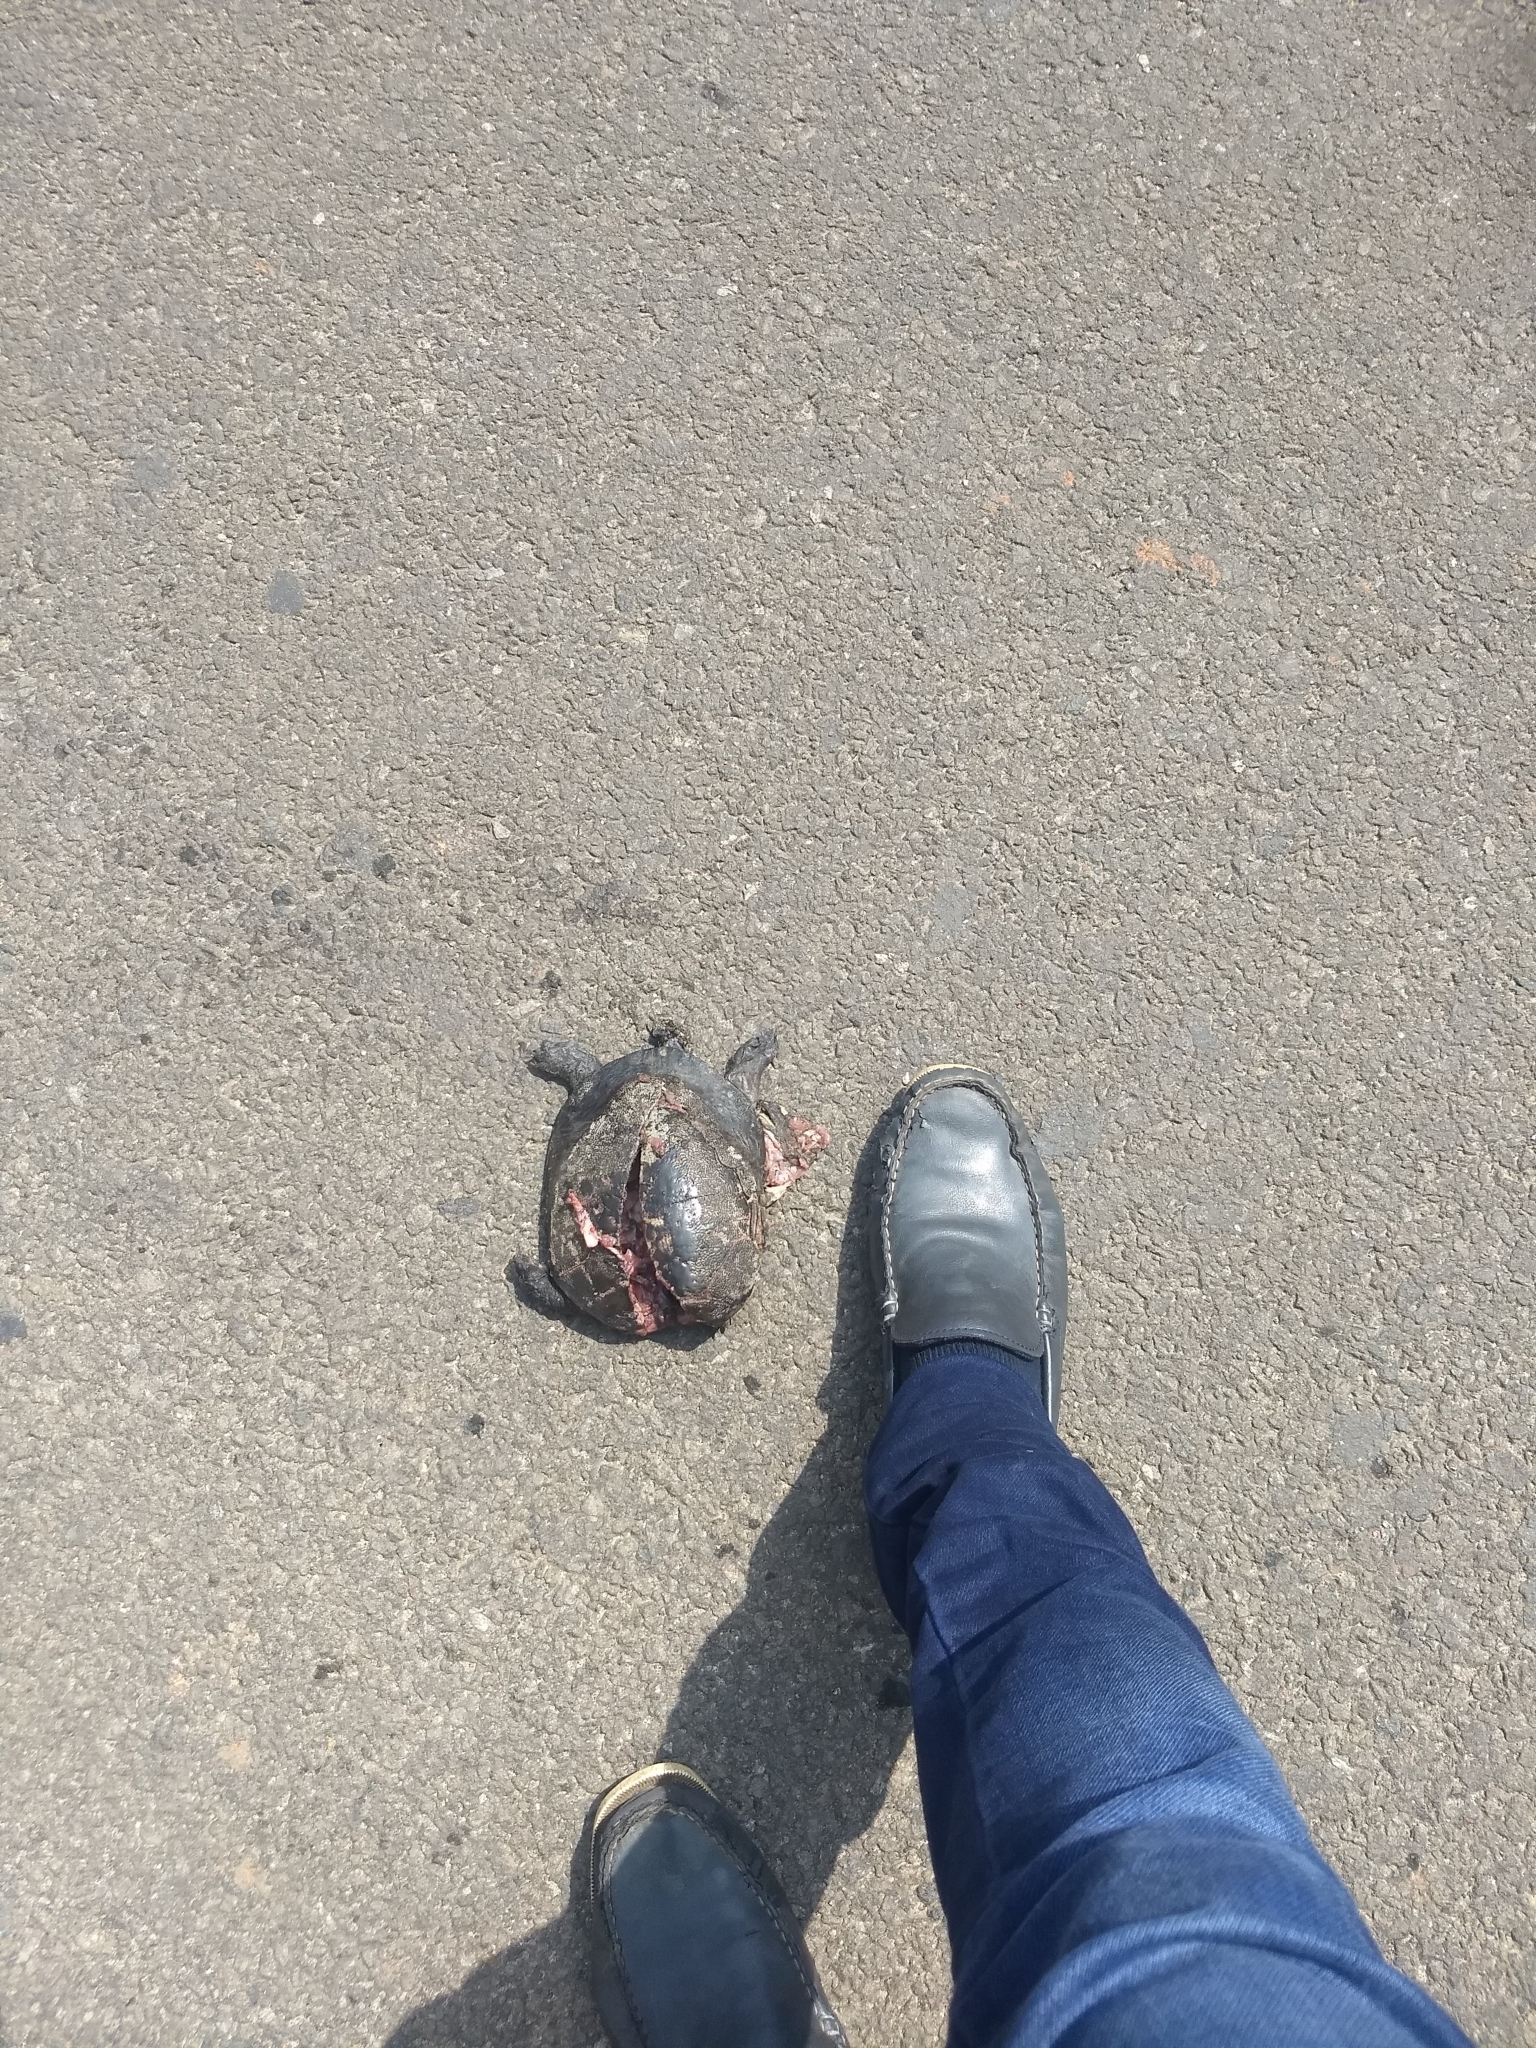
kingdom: Animalia
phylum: Chordata
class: Testudines
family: Trionychidae
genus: Lissemys
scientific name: Lissemys punctata
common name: Indian flap-shelled turtle
